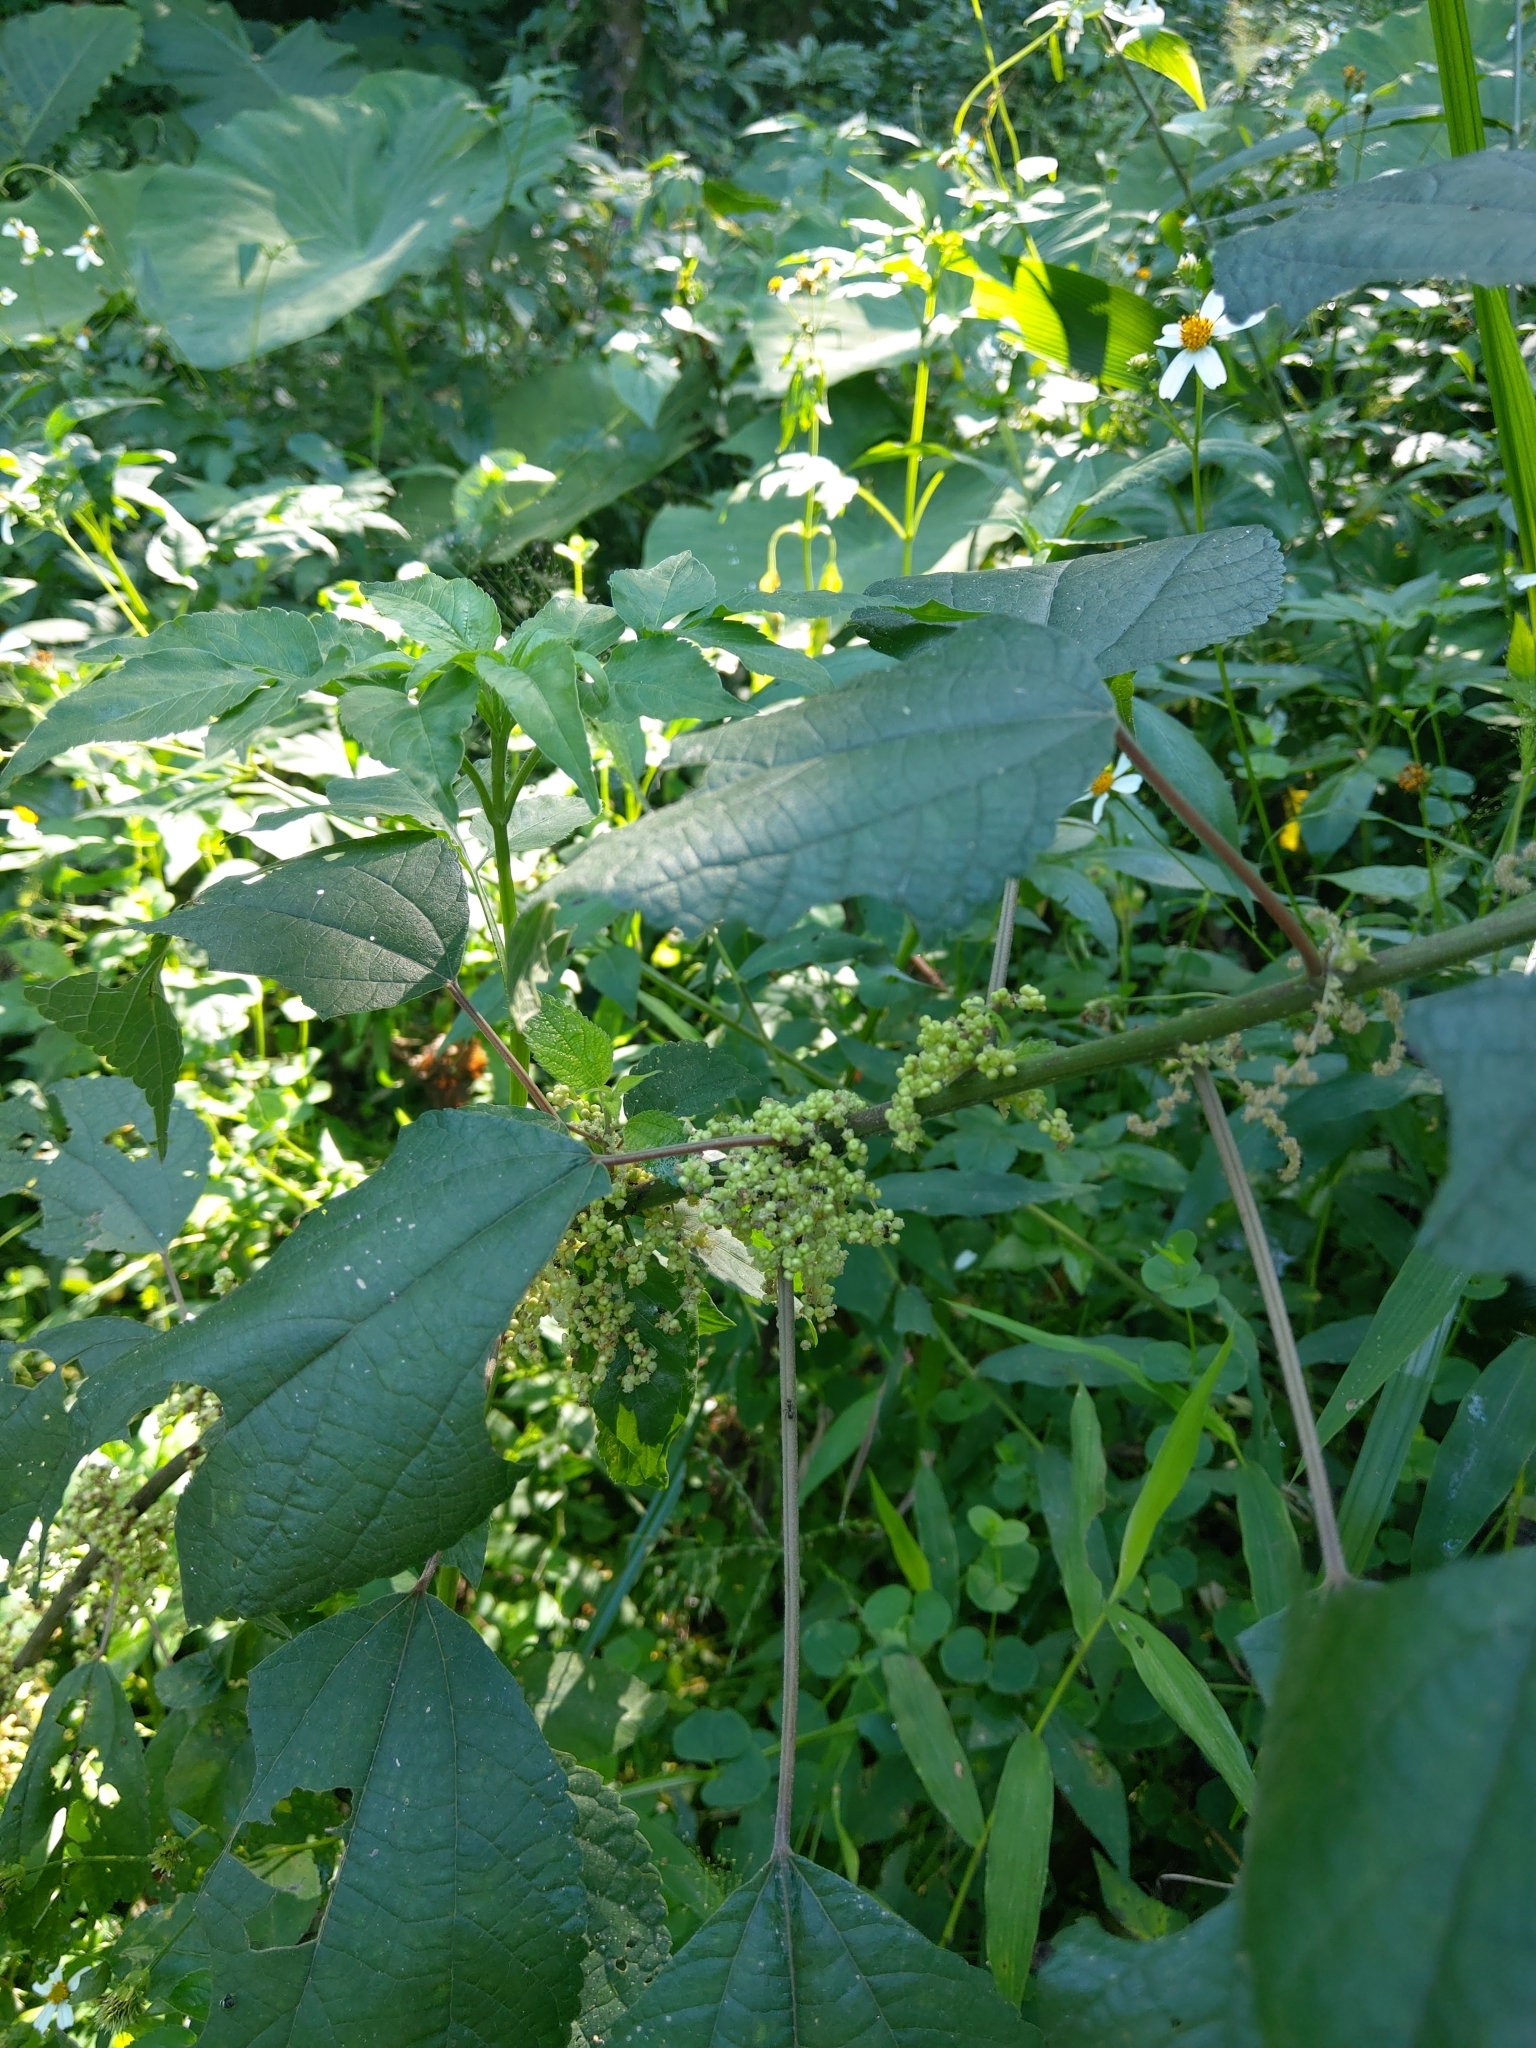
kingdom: Plantae
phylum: Tracheophyta
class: Magnoliopsida
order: Rosales
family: Urticaceae
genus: Boehmeria
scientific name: Boehmeria nivea
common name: Ramie chinese grass
